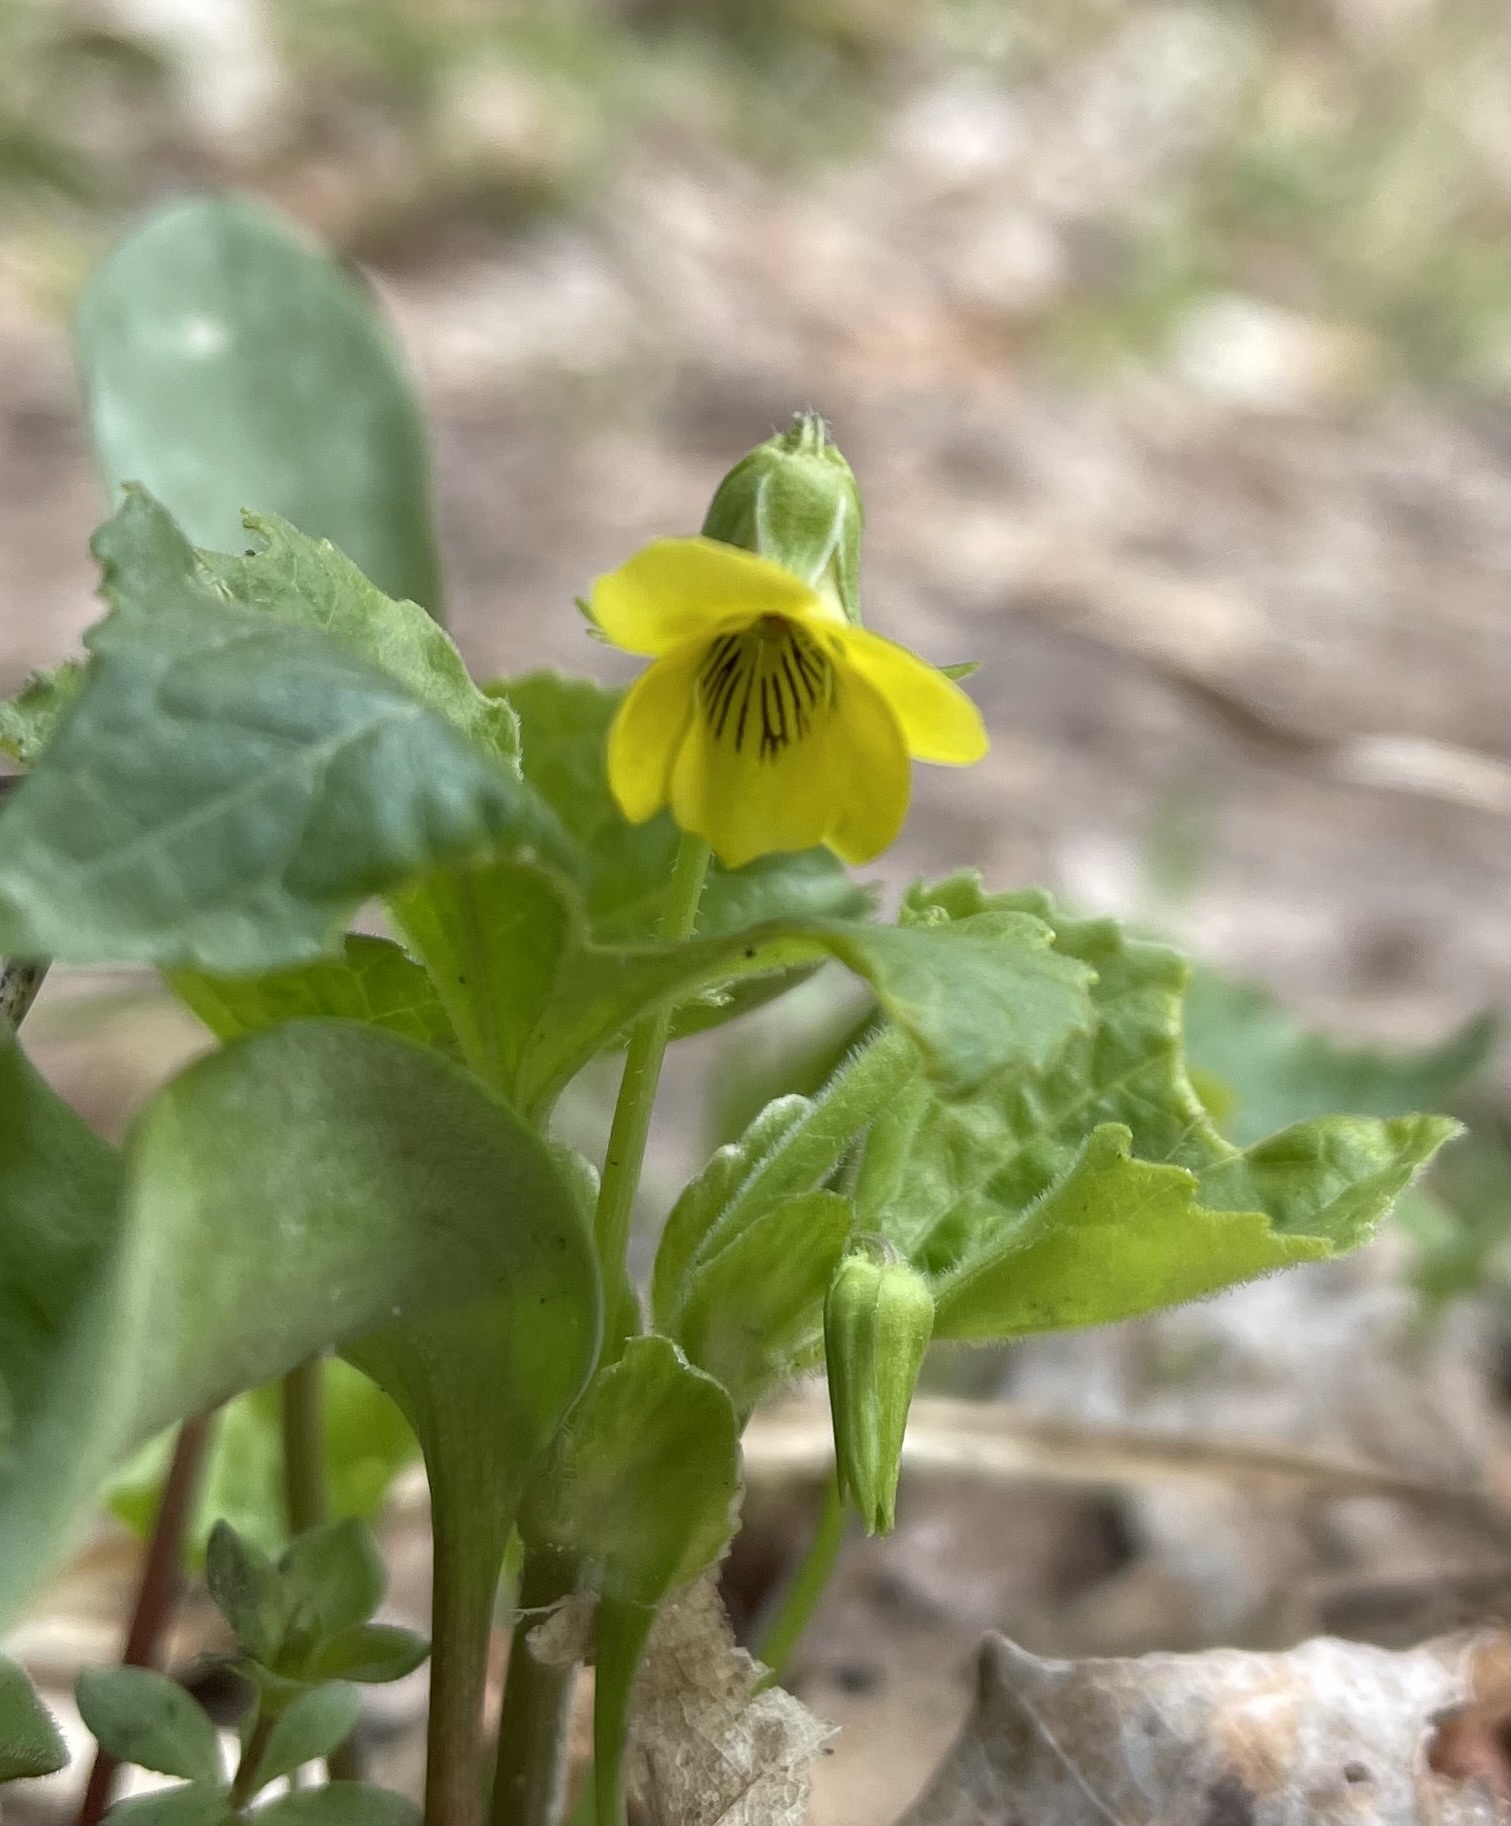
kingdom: Plantae
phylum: Tracheophyta
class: Magnoliopsida
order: Malpighiales
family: Violaceae
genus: Viola
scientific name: Viola eriocarpa
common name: Smooth yellow violet
